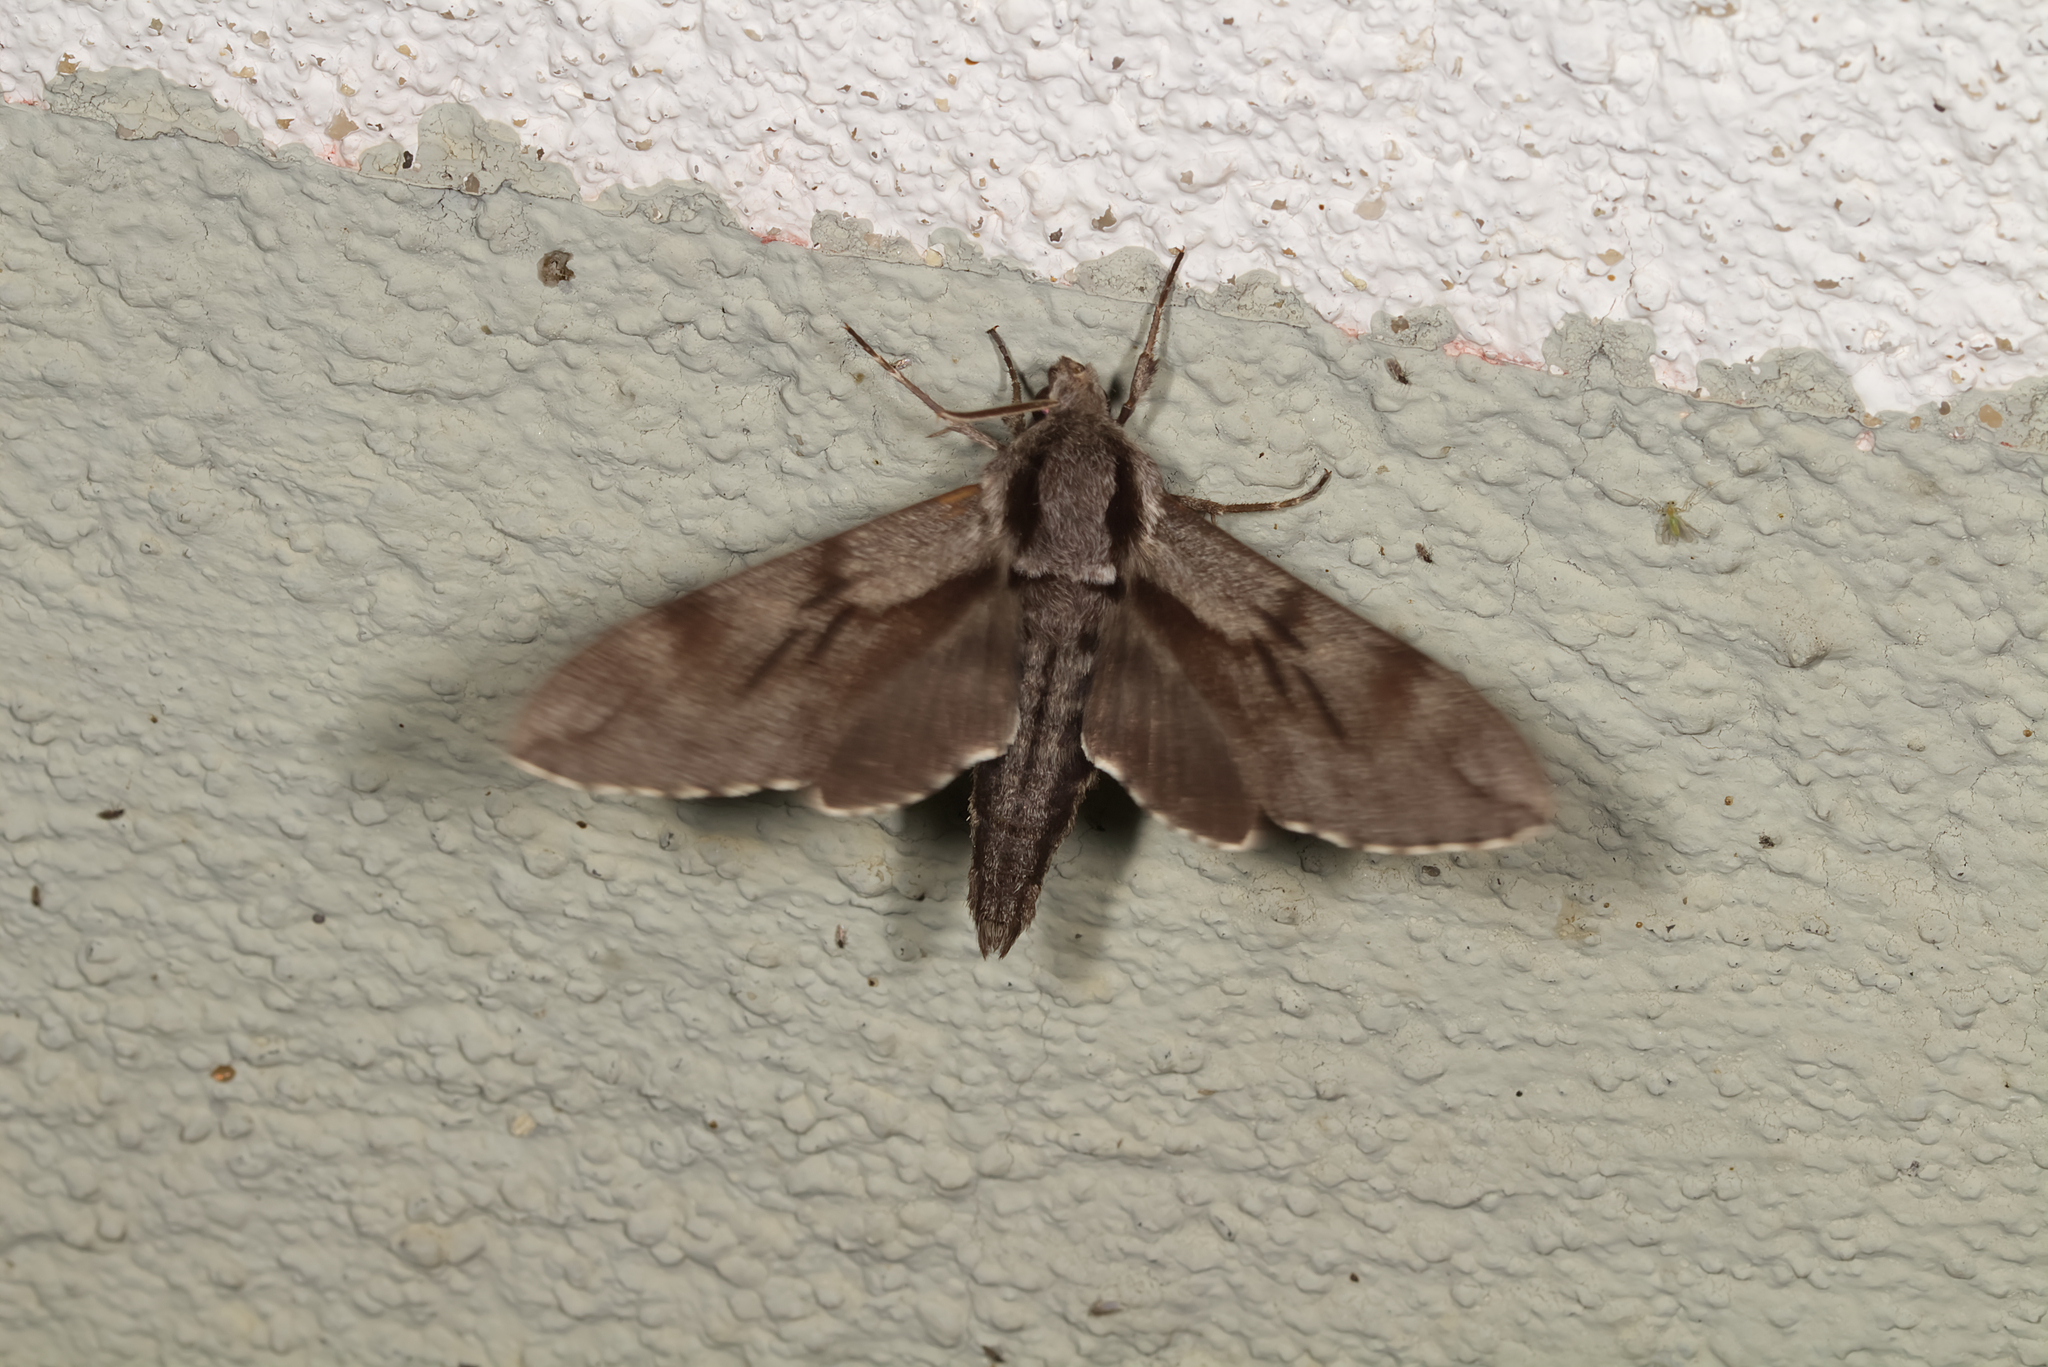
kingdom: Animalia
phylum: Arthropoda
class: Insecta
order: Lepidoptera
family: Sphingidae
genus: Sphinx
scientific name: Sphinx pinastri
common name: Pine hawk-moth
